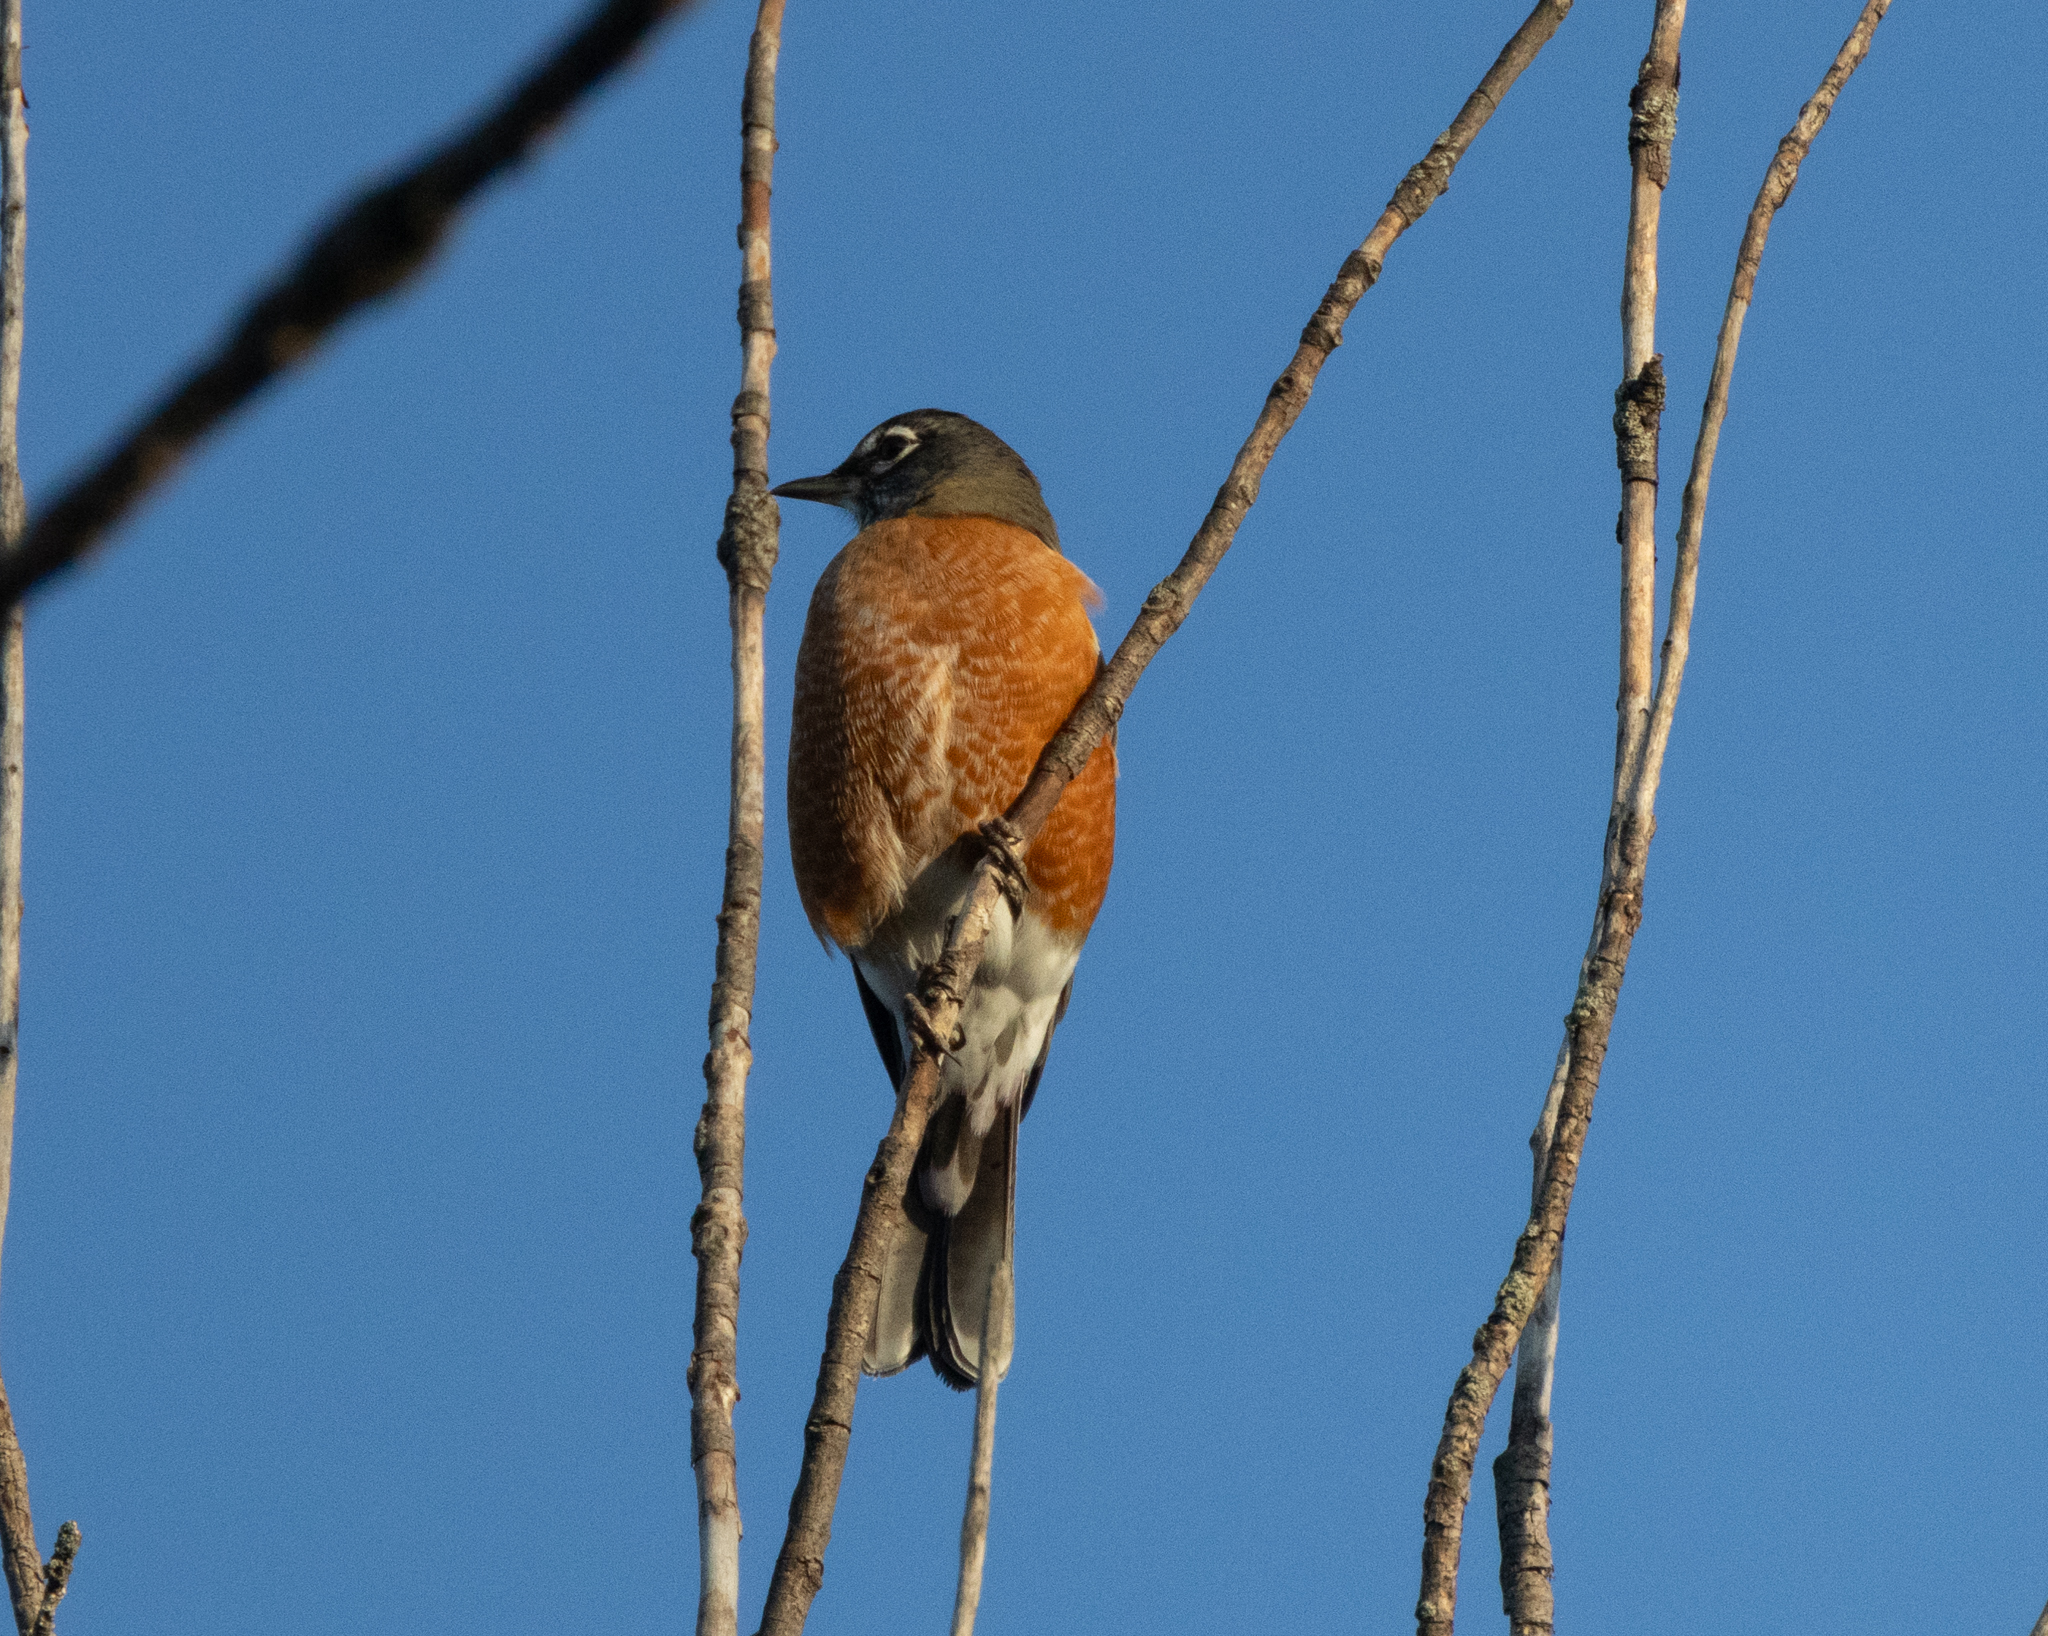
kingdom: Animalia
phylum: Chordata
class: Aves
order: Passeriformes
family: Turdidae
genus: Turdus
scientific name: Turdus migratorius
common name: American robin
